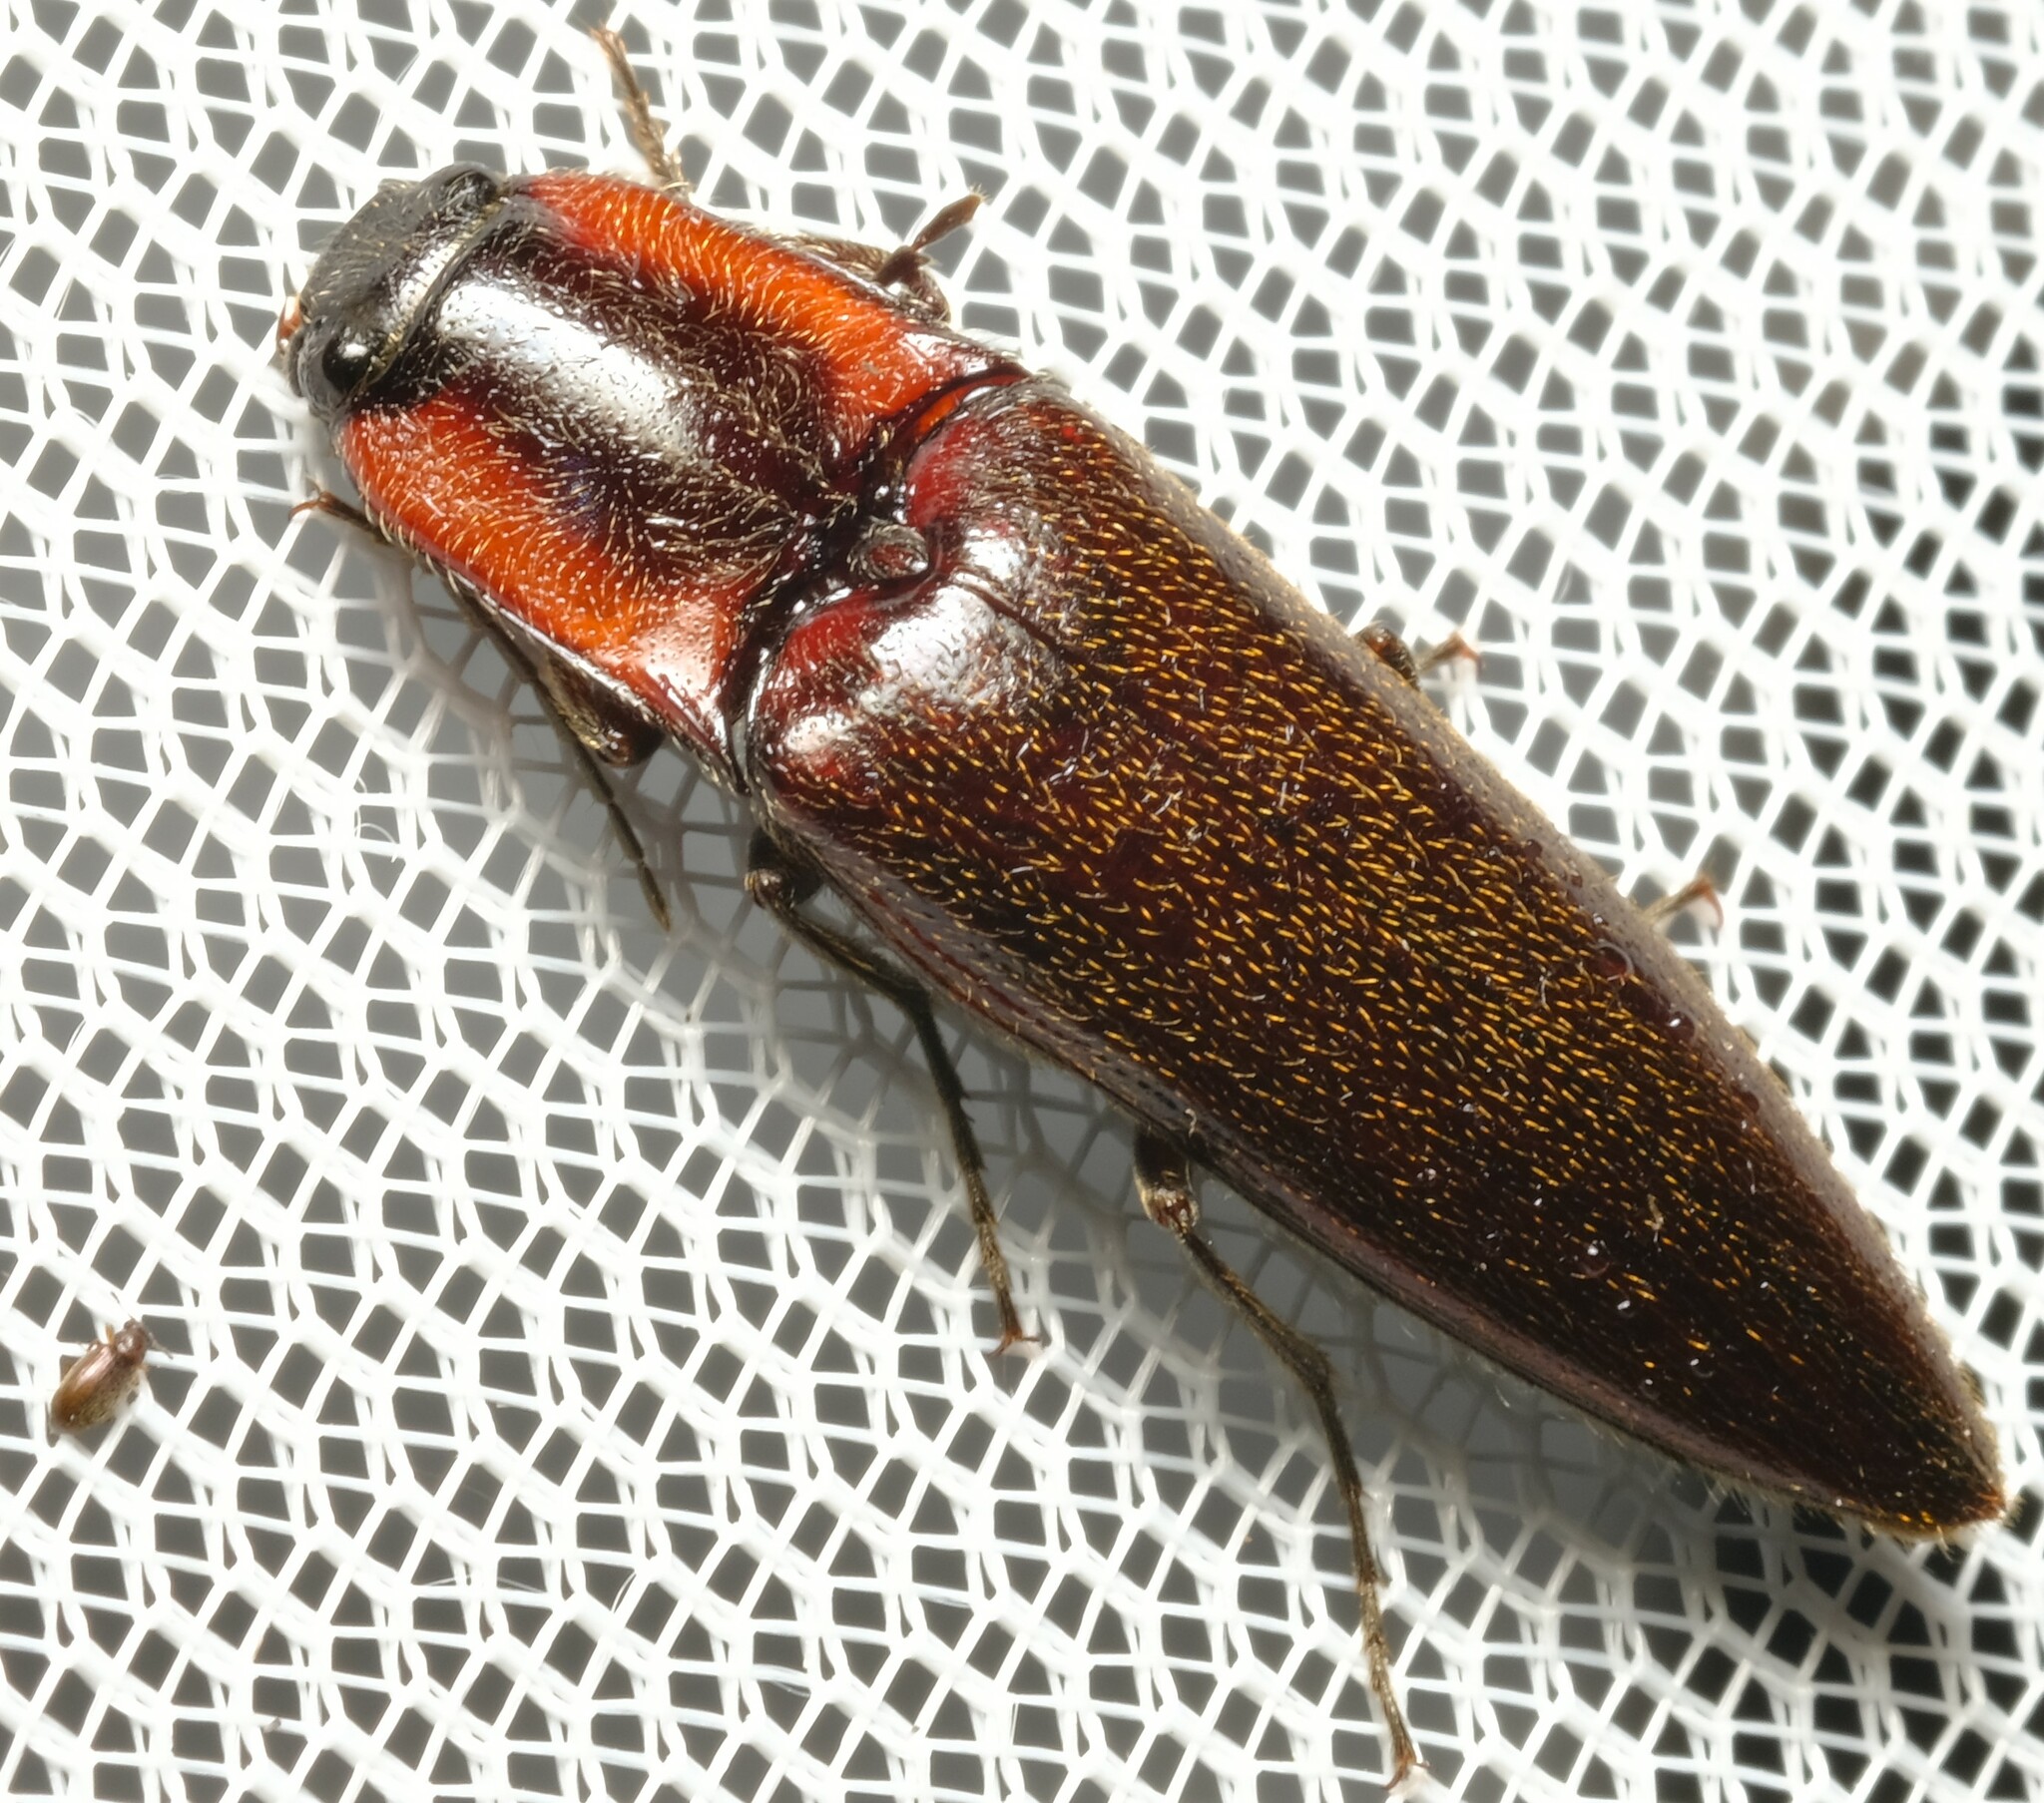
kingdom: Animalia
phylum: Arthropoda
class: Insecta
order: Coleoptera
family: Elateridae
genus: Lingana
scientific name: Lingana
